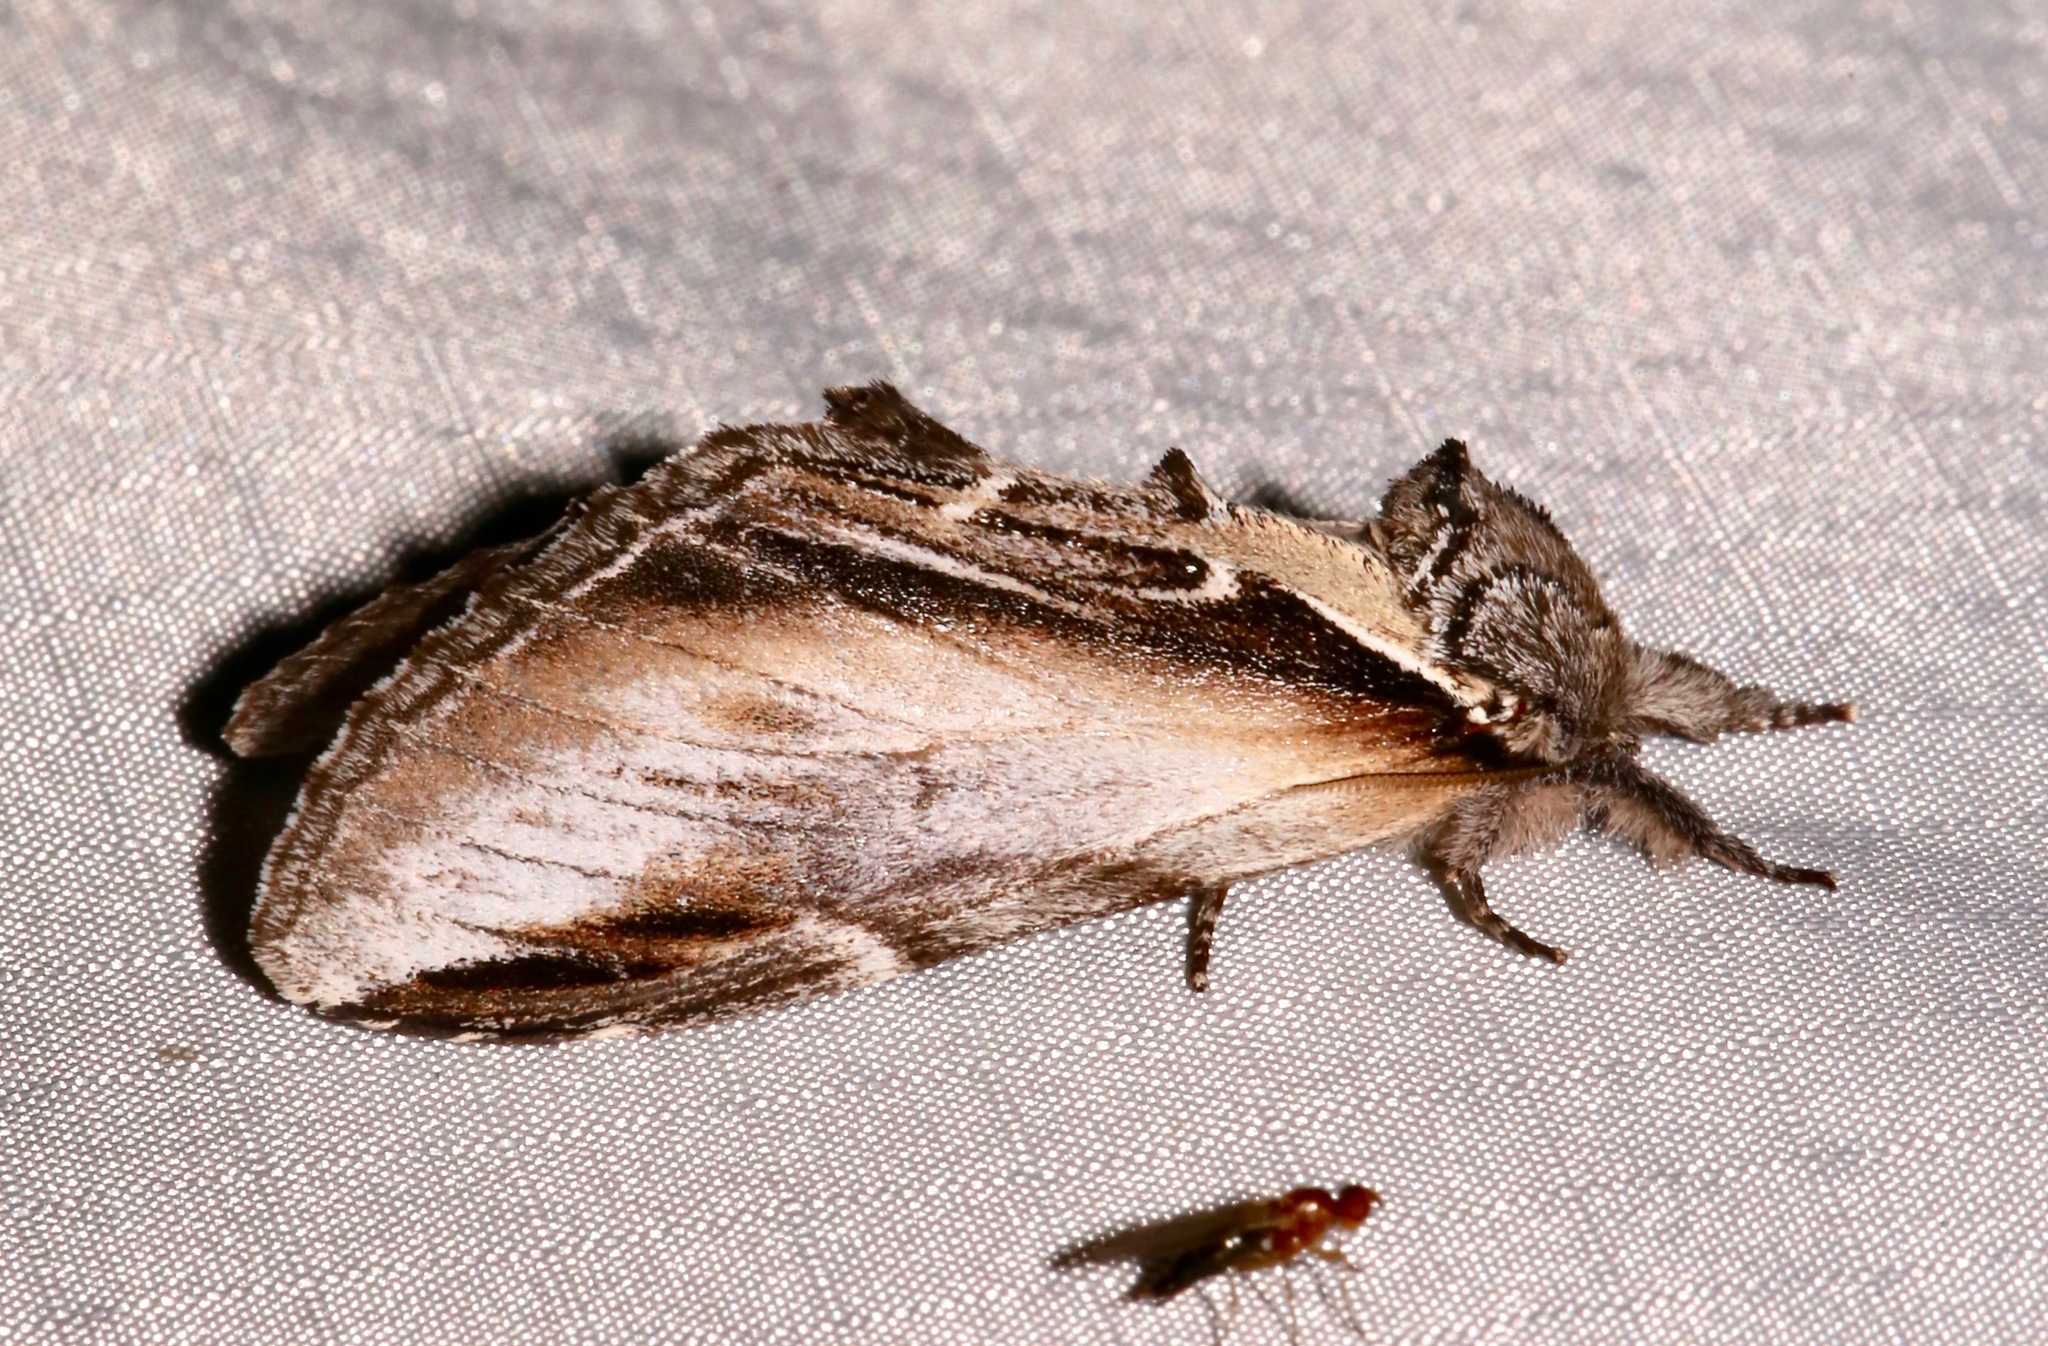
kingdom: Animalia
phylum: Arthropoda
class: Insecta
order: Lepidoptera
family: Notodontidae
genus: Pheosia
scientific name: Pheosia rimosa
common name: Black-rimmed prominent
